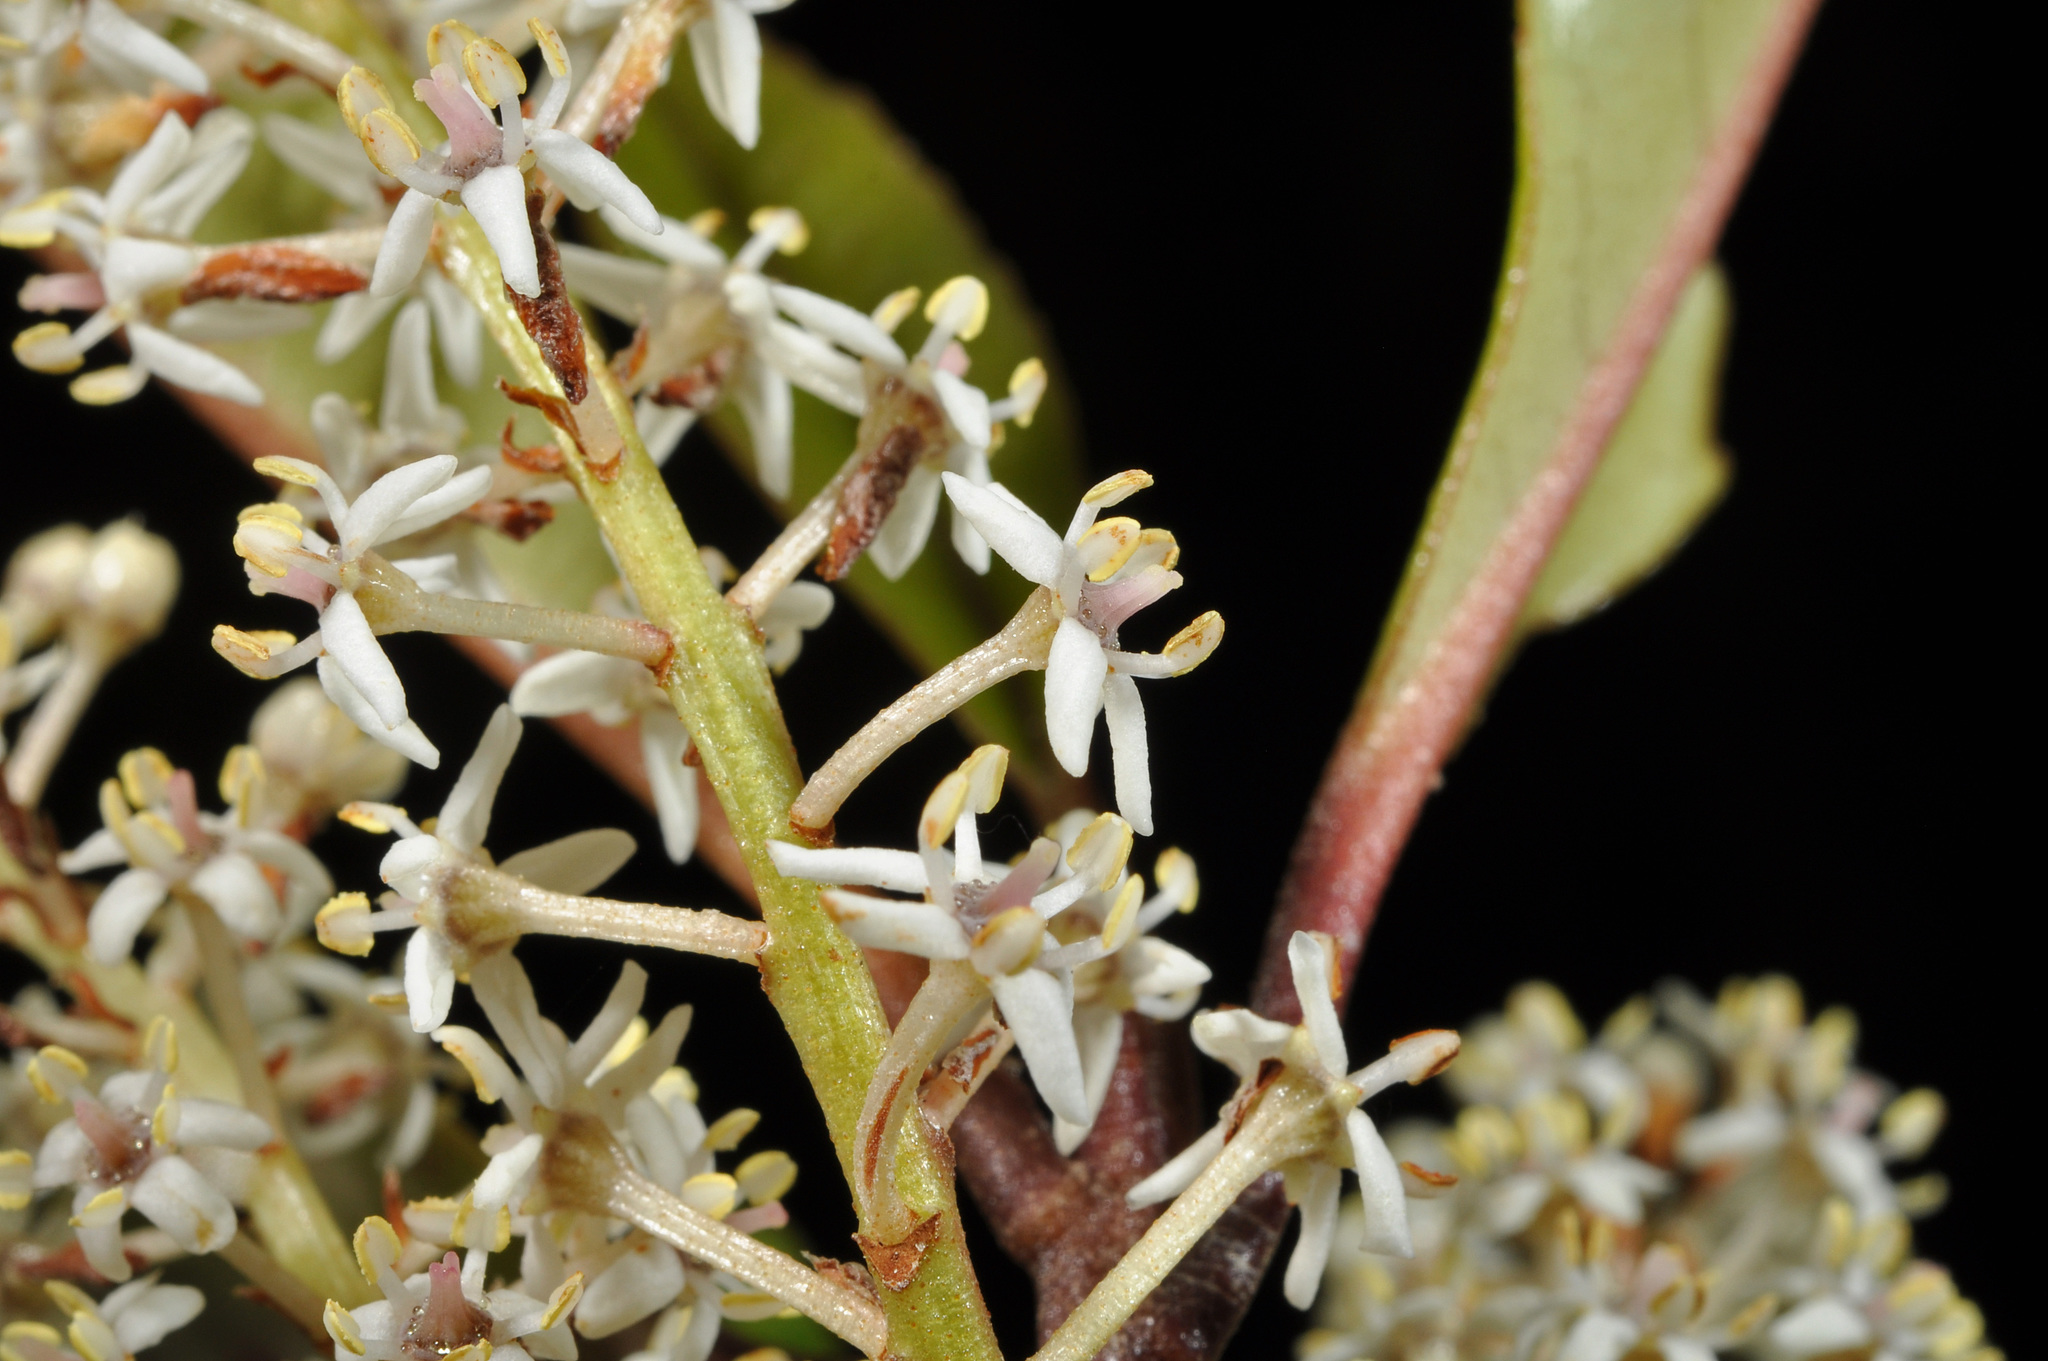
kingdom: Plantae
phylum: Tracheophyta
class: Magnoliopsida
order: Paracryphiales
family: Paracryphiaceae
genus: Quintinia
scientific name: Quintinia serrata
